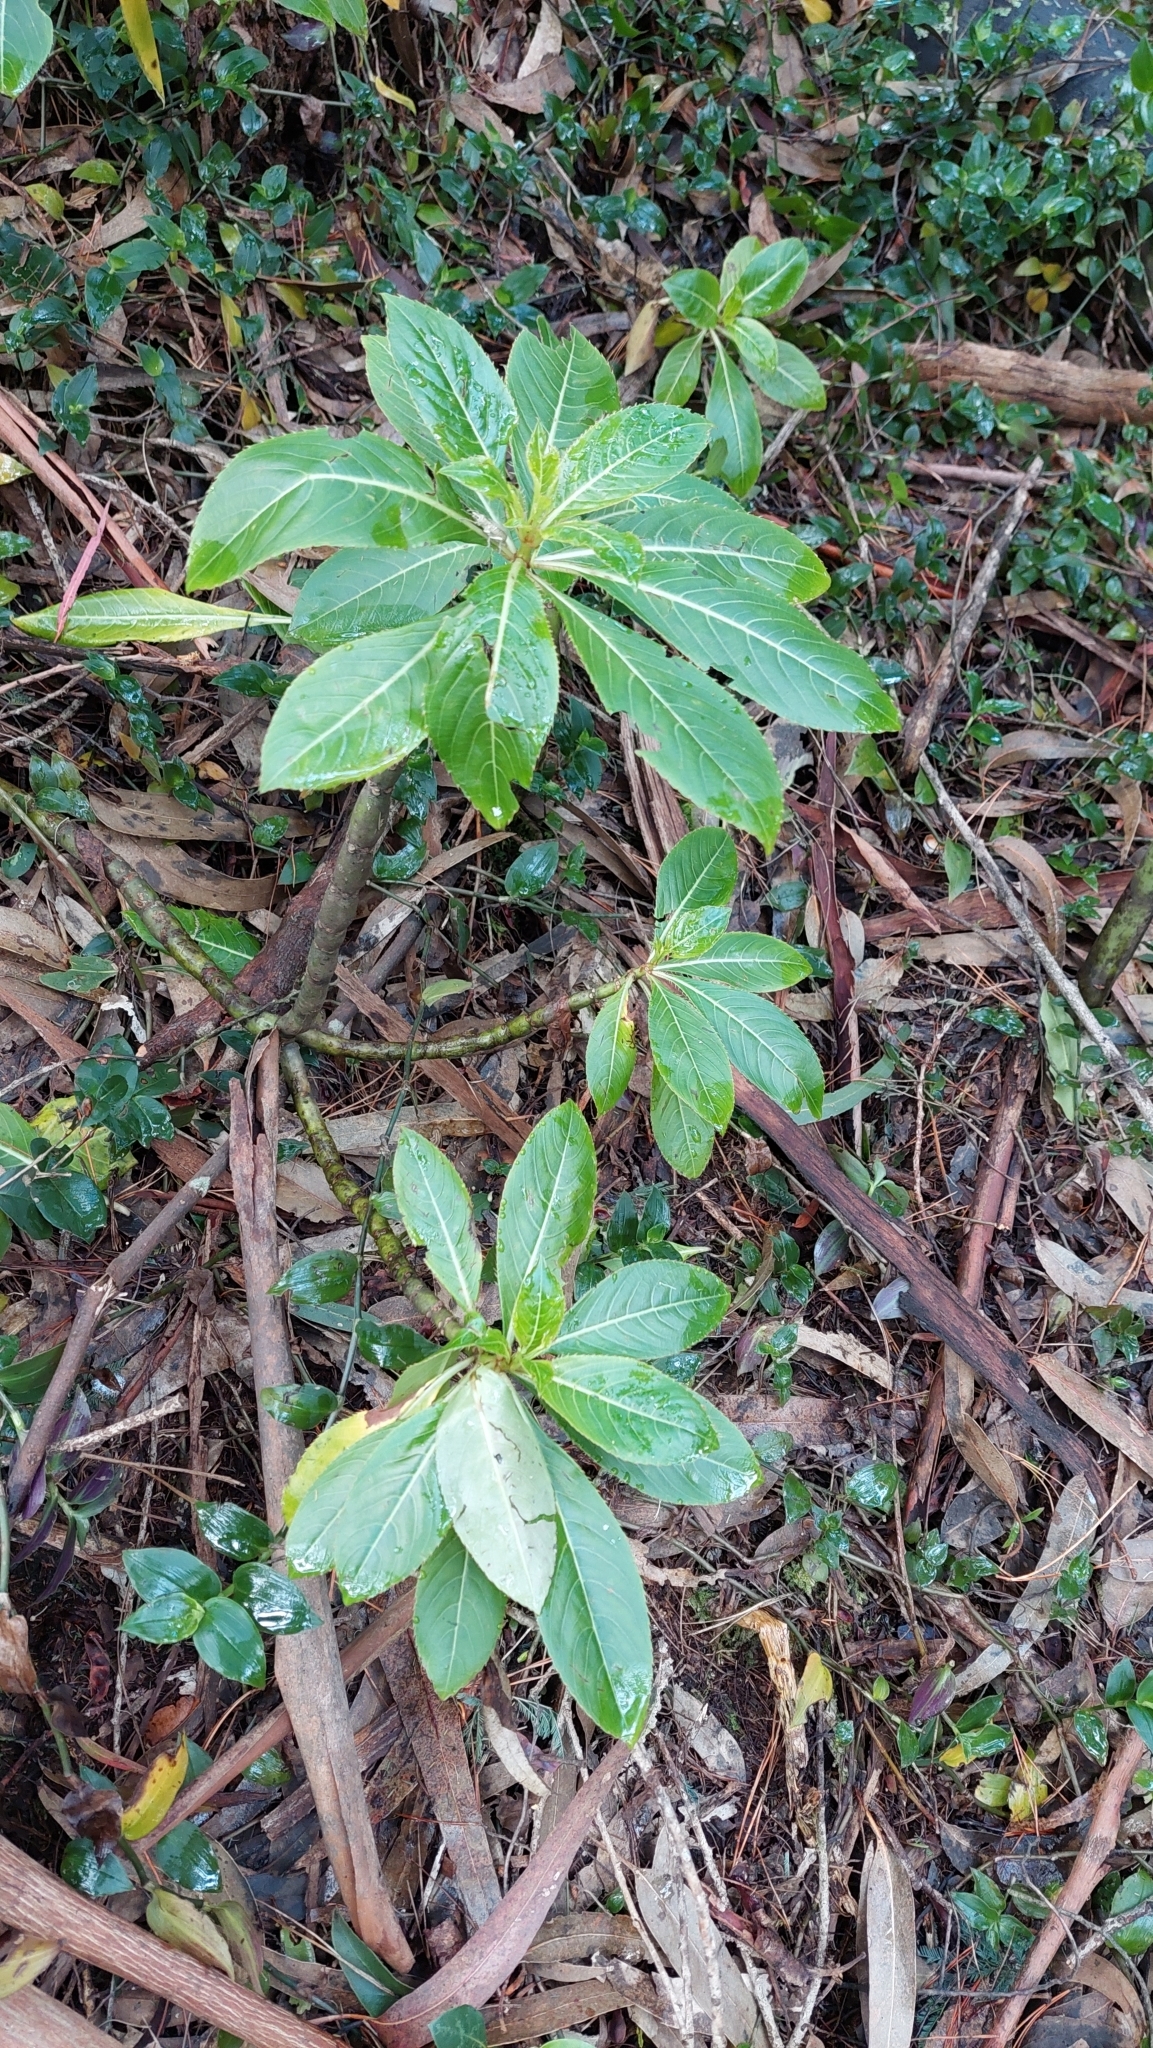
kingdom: Plantae
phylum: Tracheophyta
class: Magnoliopsida
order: Ericales
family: Balsaminaceae
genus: Impatiens
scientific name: Impatiens sodenii
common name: Oliver's touch-me-not
